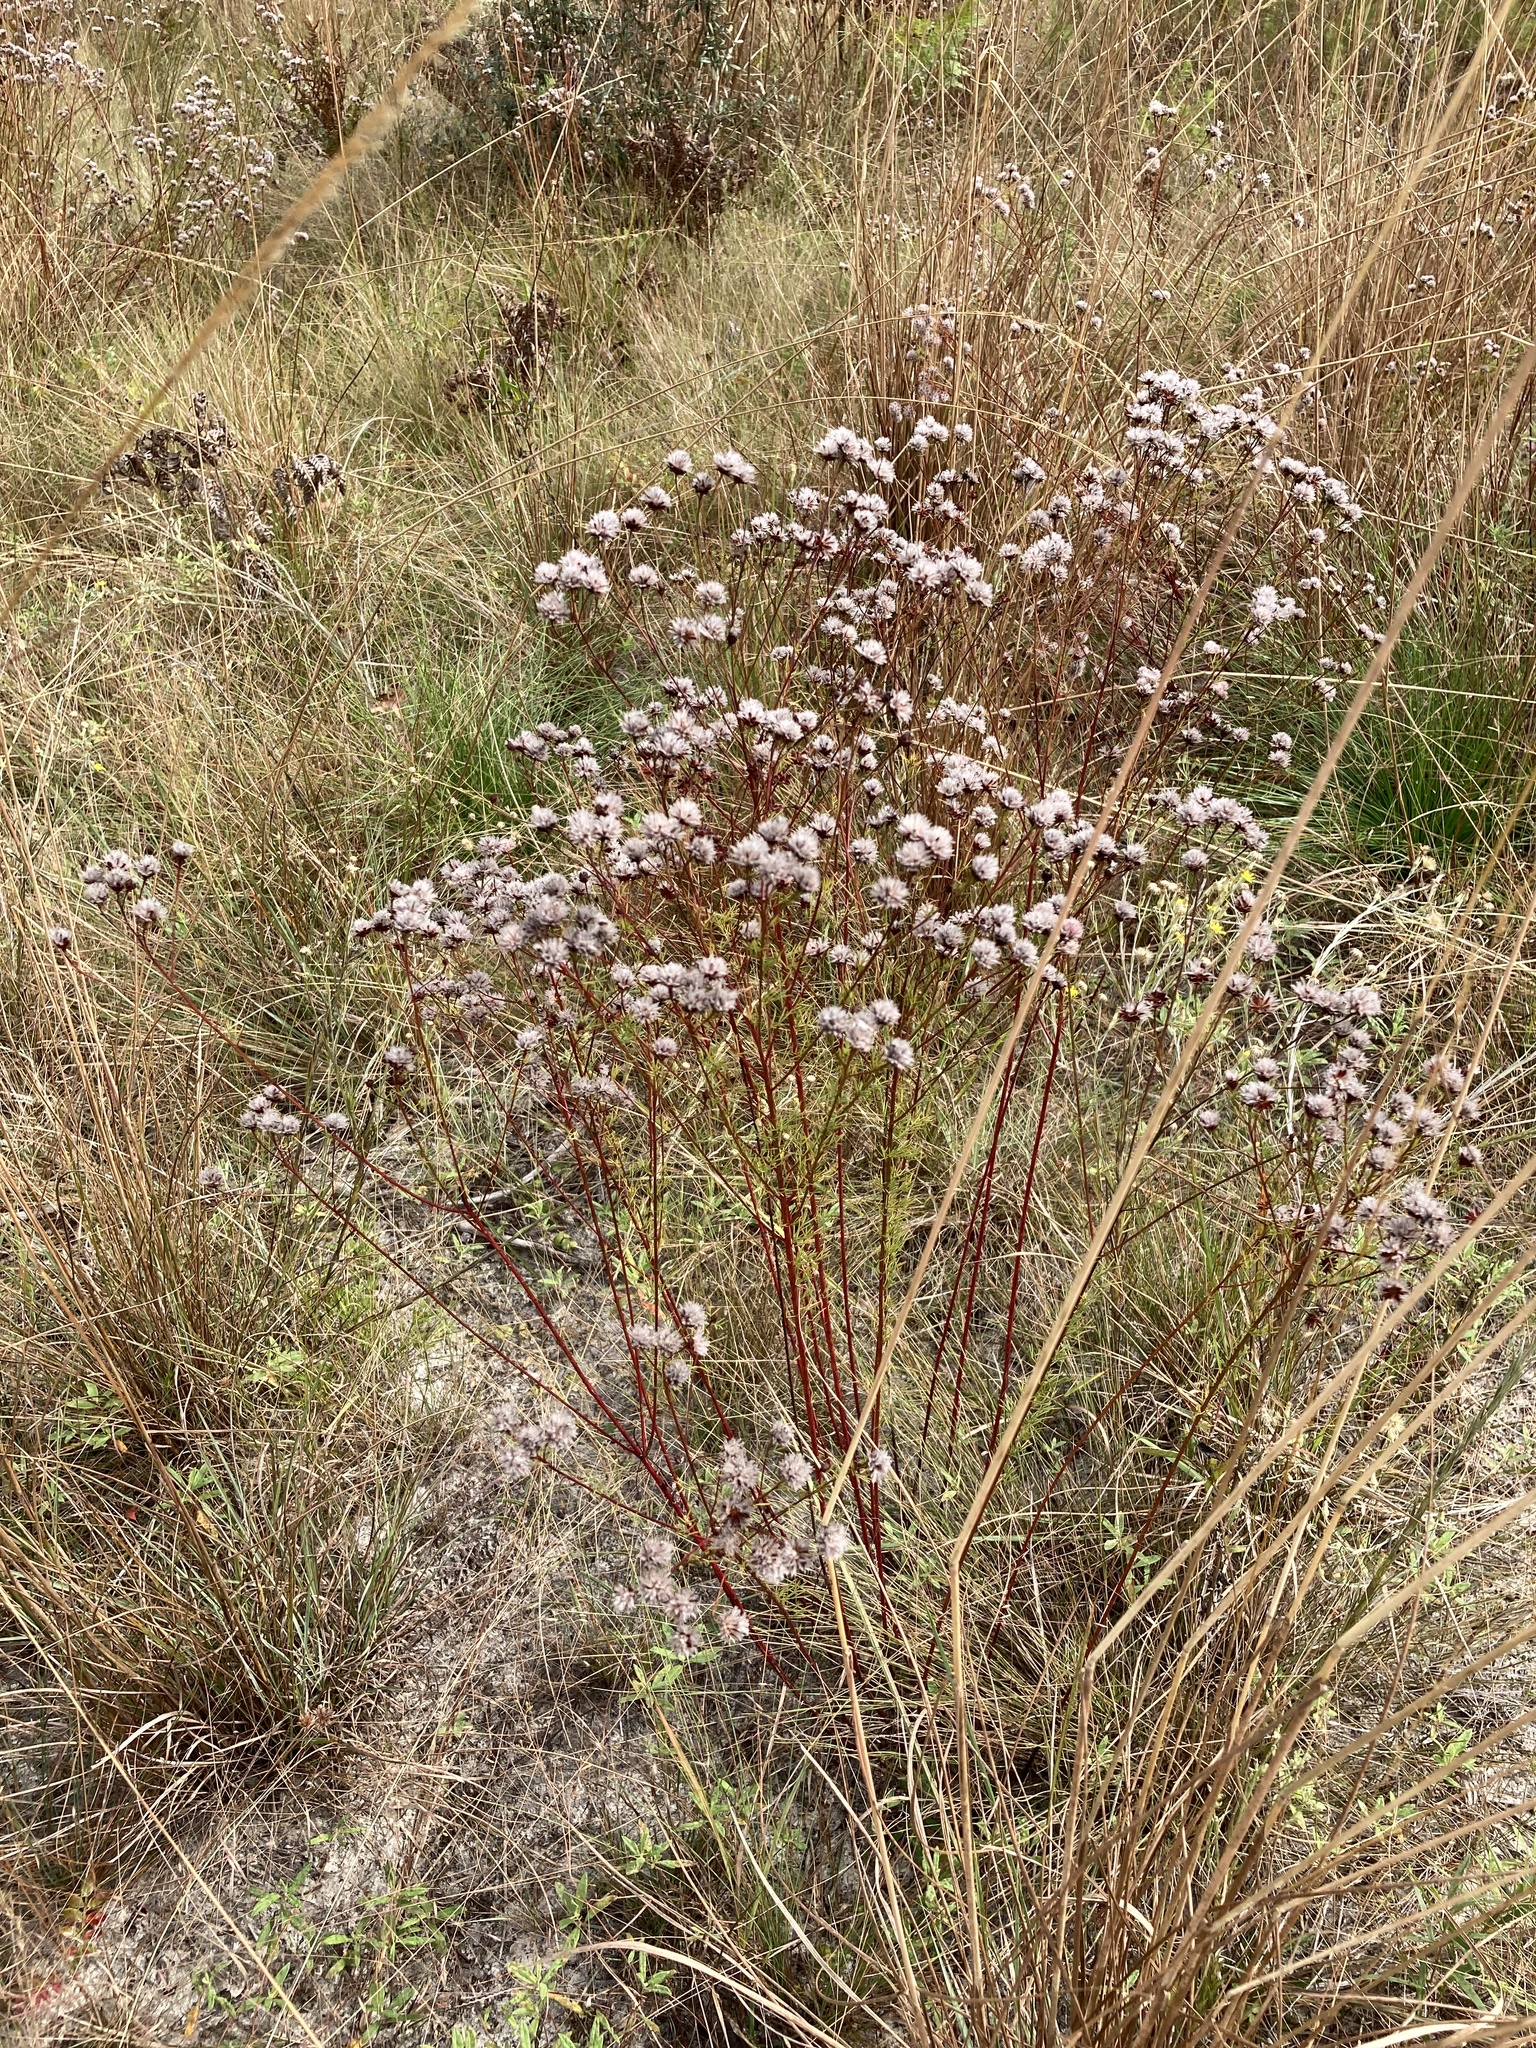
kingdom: Plantae
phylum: Tracheophyta
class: Magnoliopsida
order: Fabales
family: Fabaceae
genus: Dalea
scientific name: Dalea pinnata
